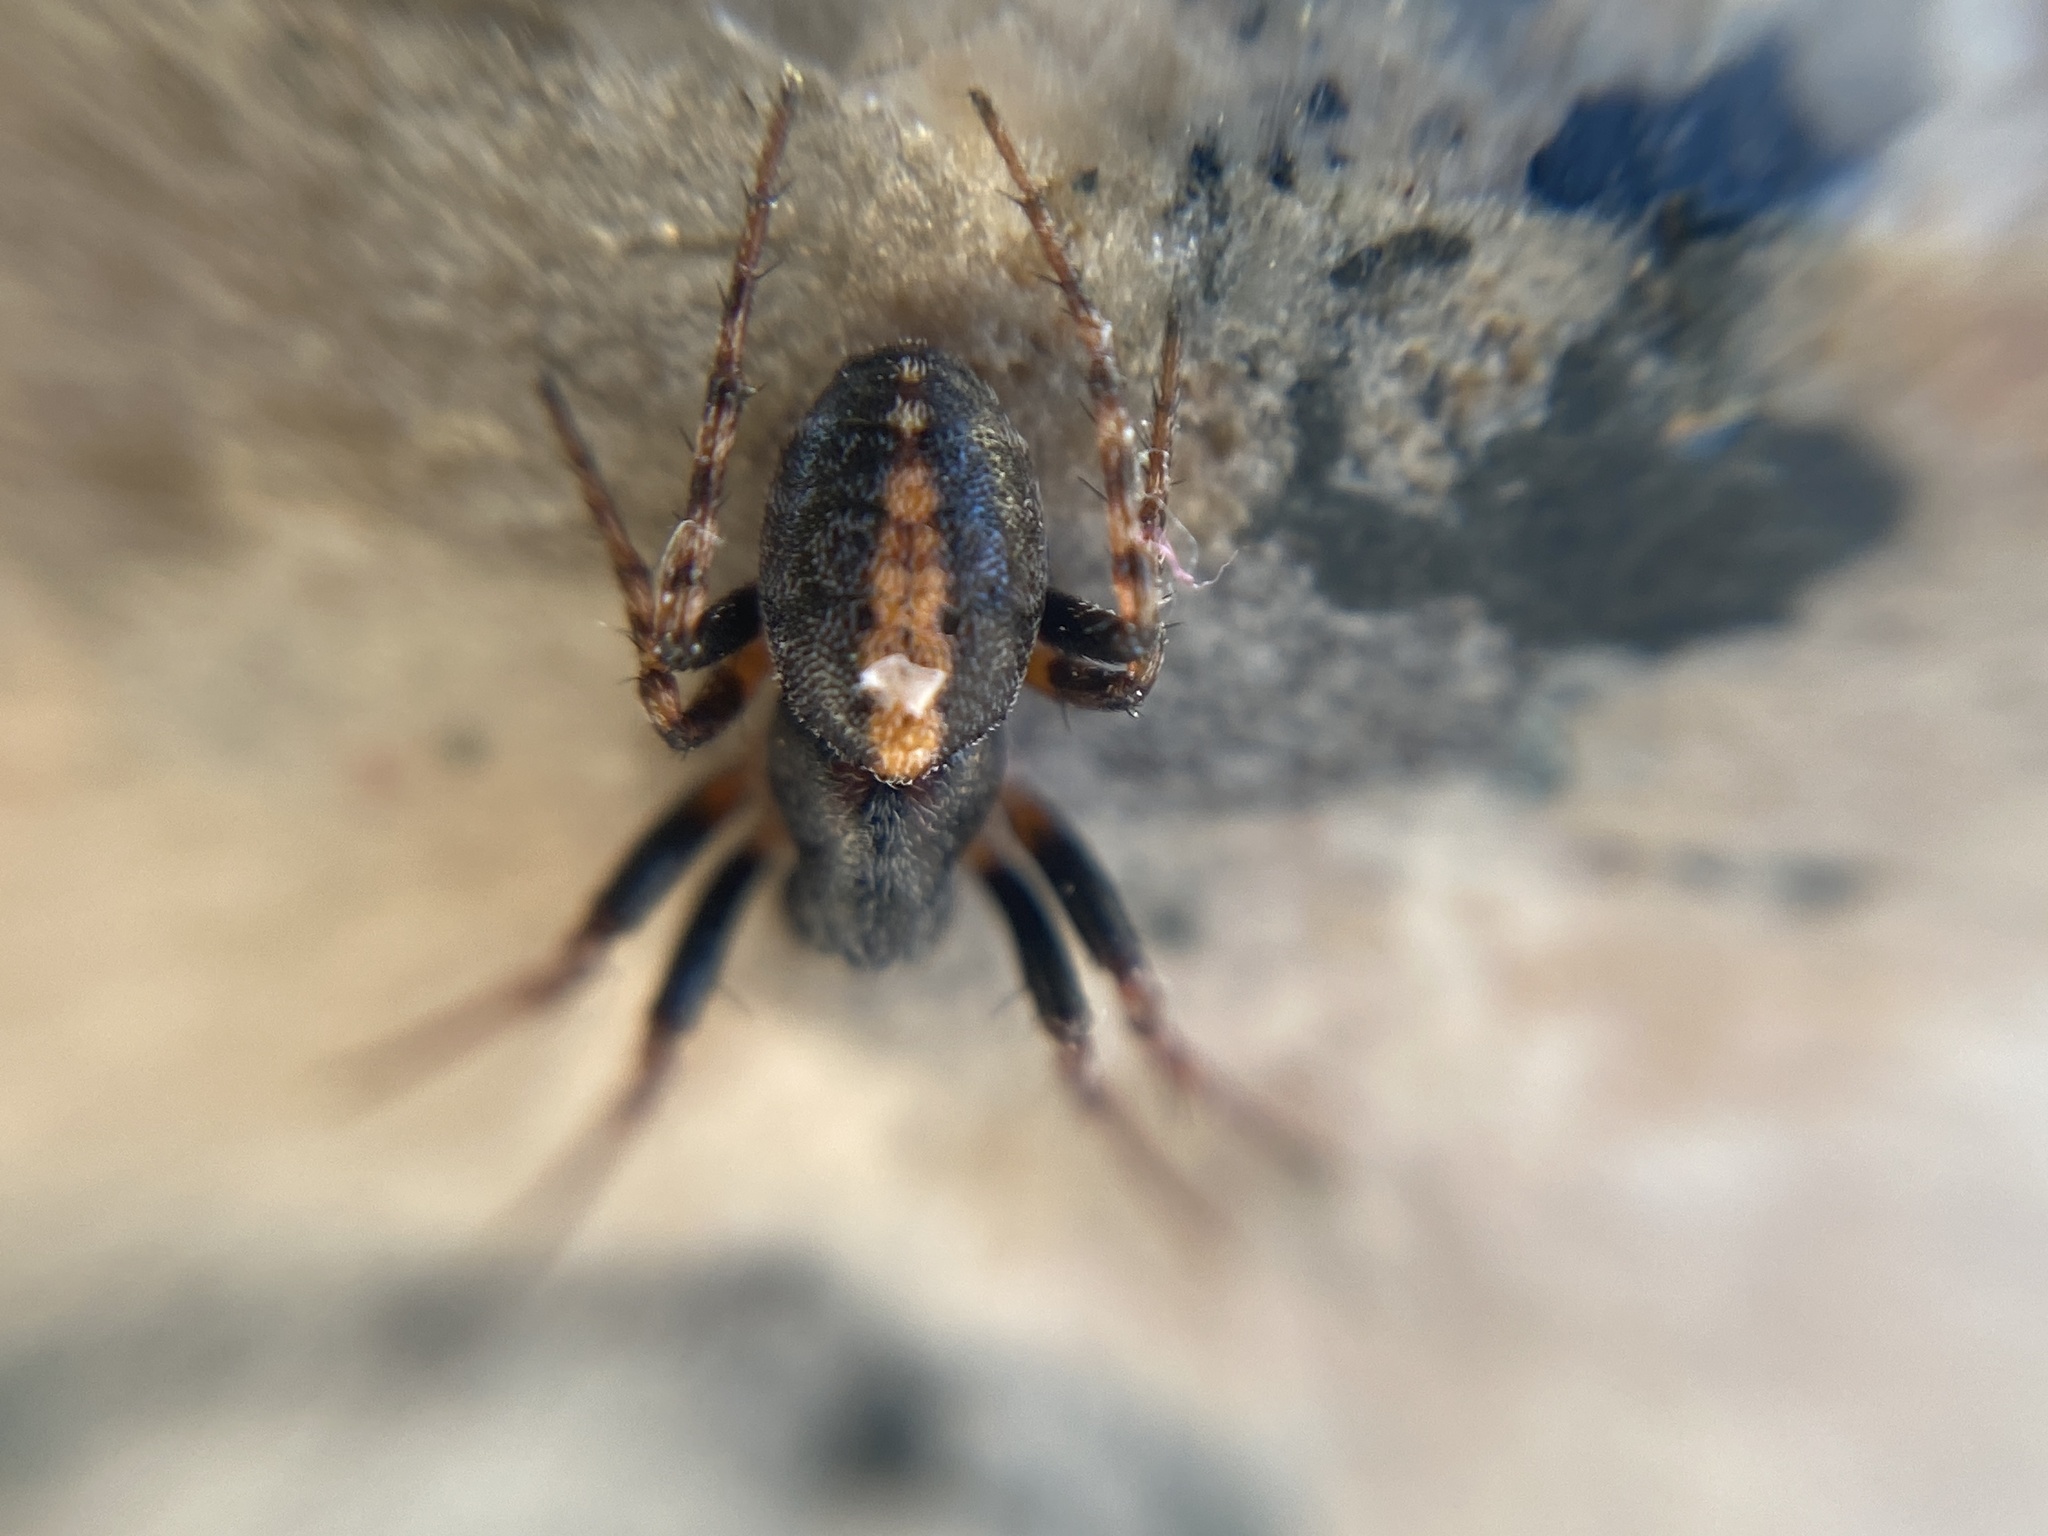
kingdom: Animalia
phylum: Arthropoda
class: Arachnida
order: Araneae
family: Araneidae
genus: Cercidia
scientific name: Cercidia prominens
